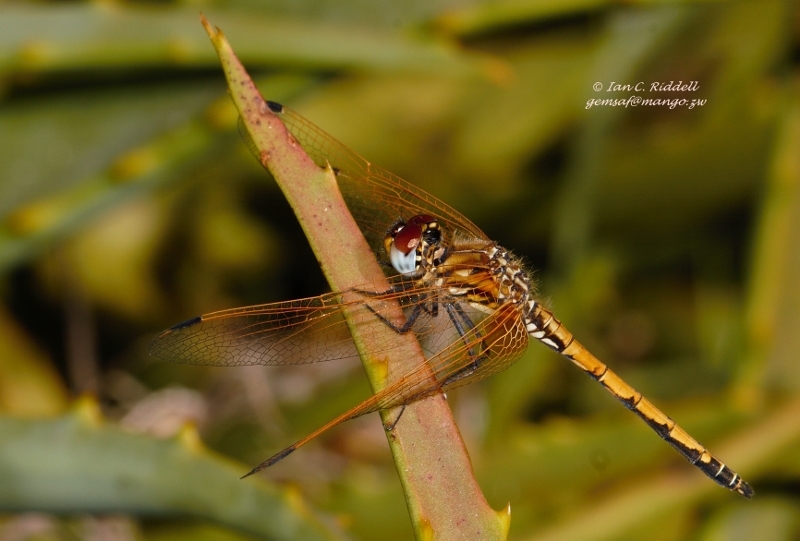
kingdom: Animalia
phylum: Arthropoda
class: Insecta
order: Odonata
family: Libellulidae
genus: Trithemis
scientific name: Trithemis arteriosa
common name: Red-veined dropwing
